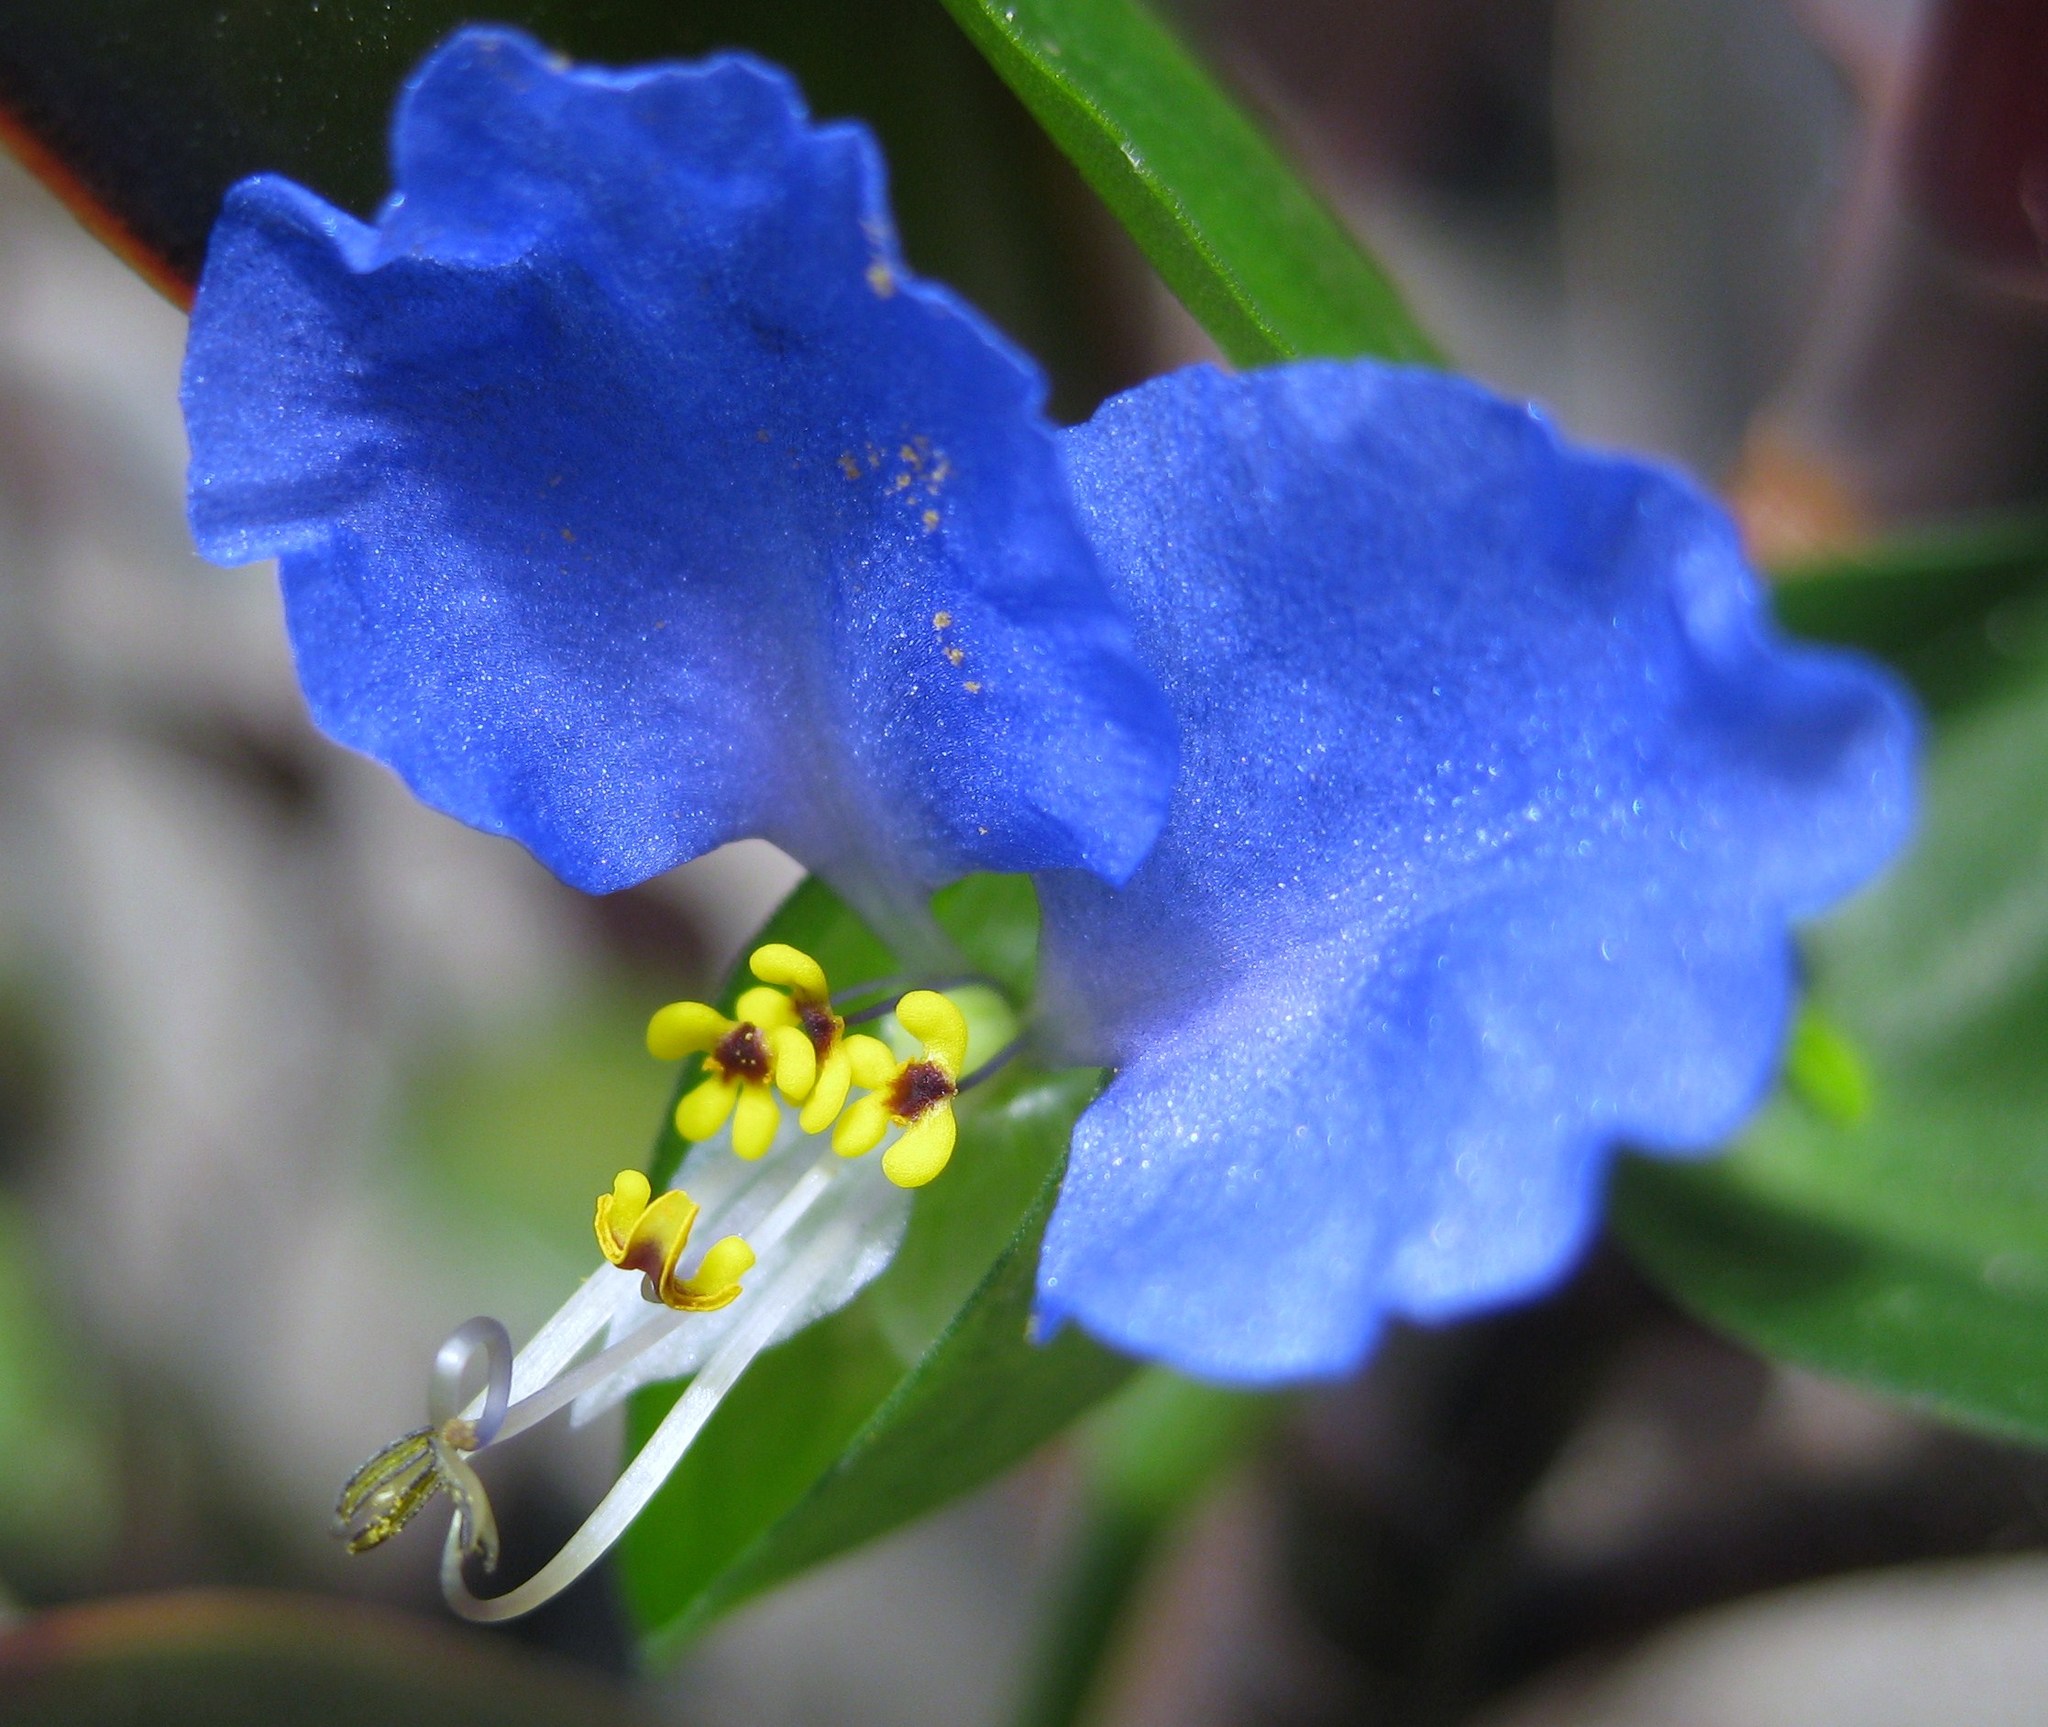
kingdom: Plantae
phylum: Tracheophyta
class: Liliopsida
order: Commelinales
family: Commelinaceae
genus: Commelina
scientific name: Commelina communis
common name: Asiatic dayflower
